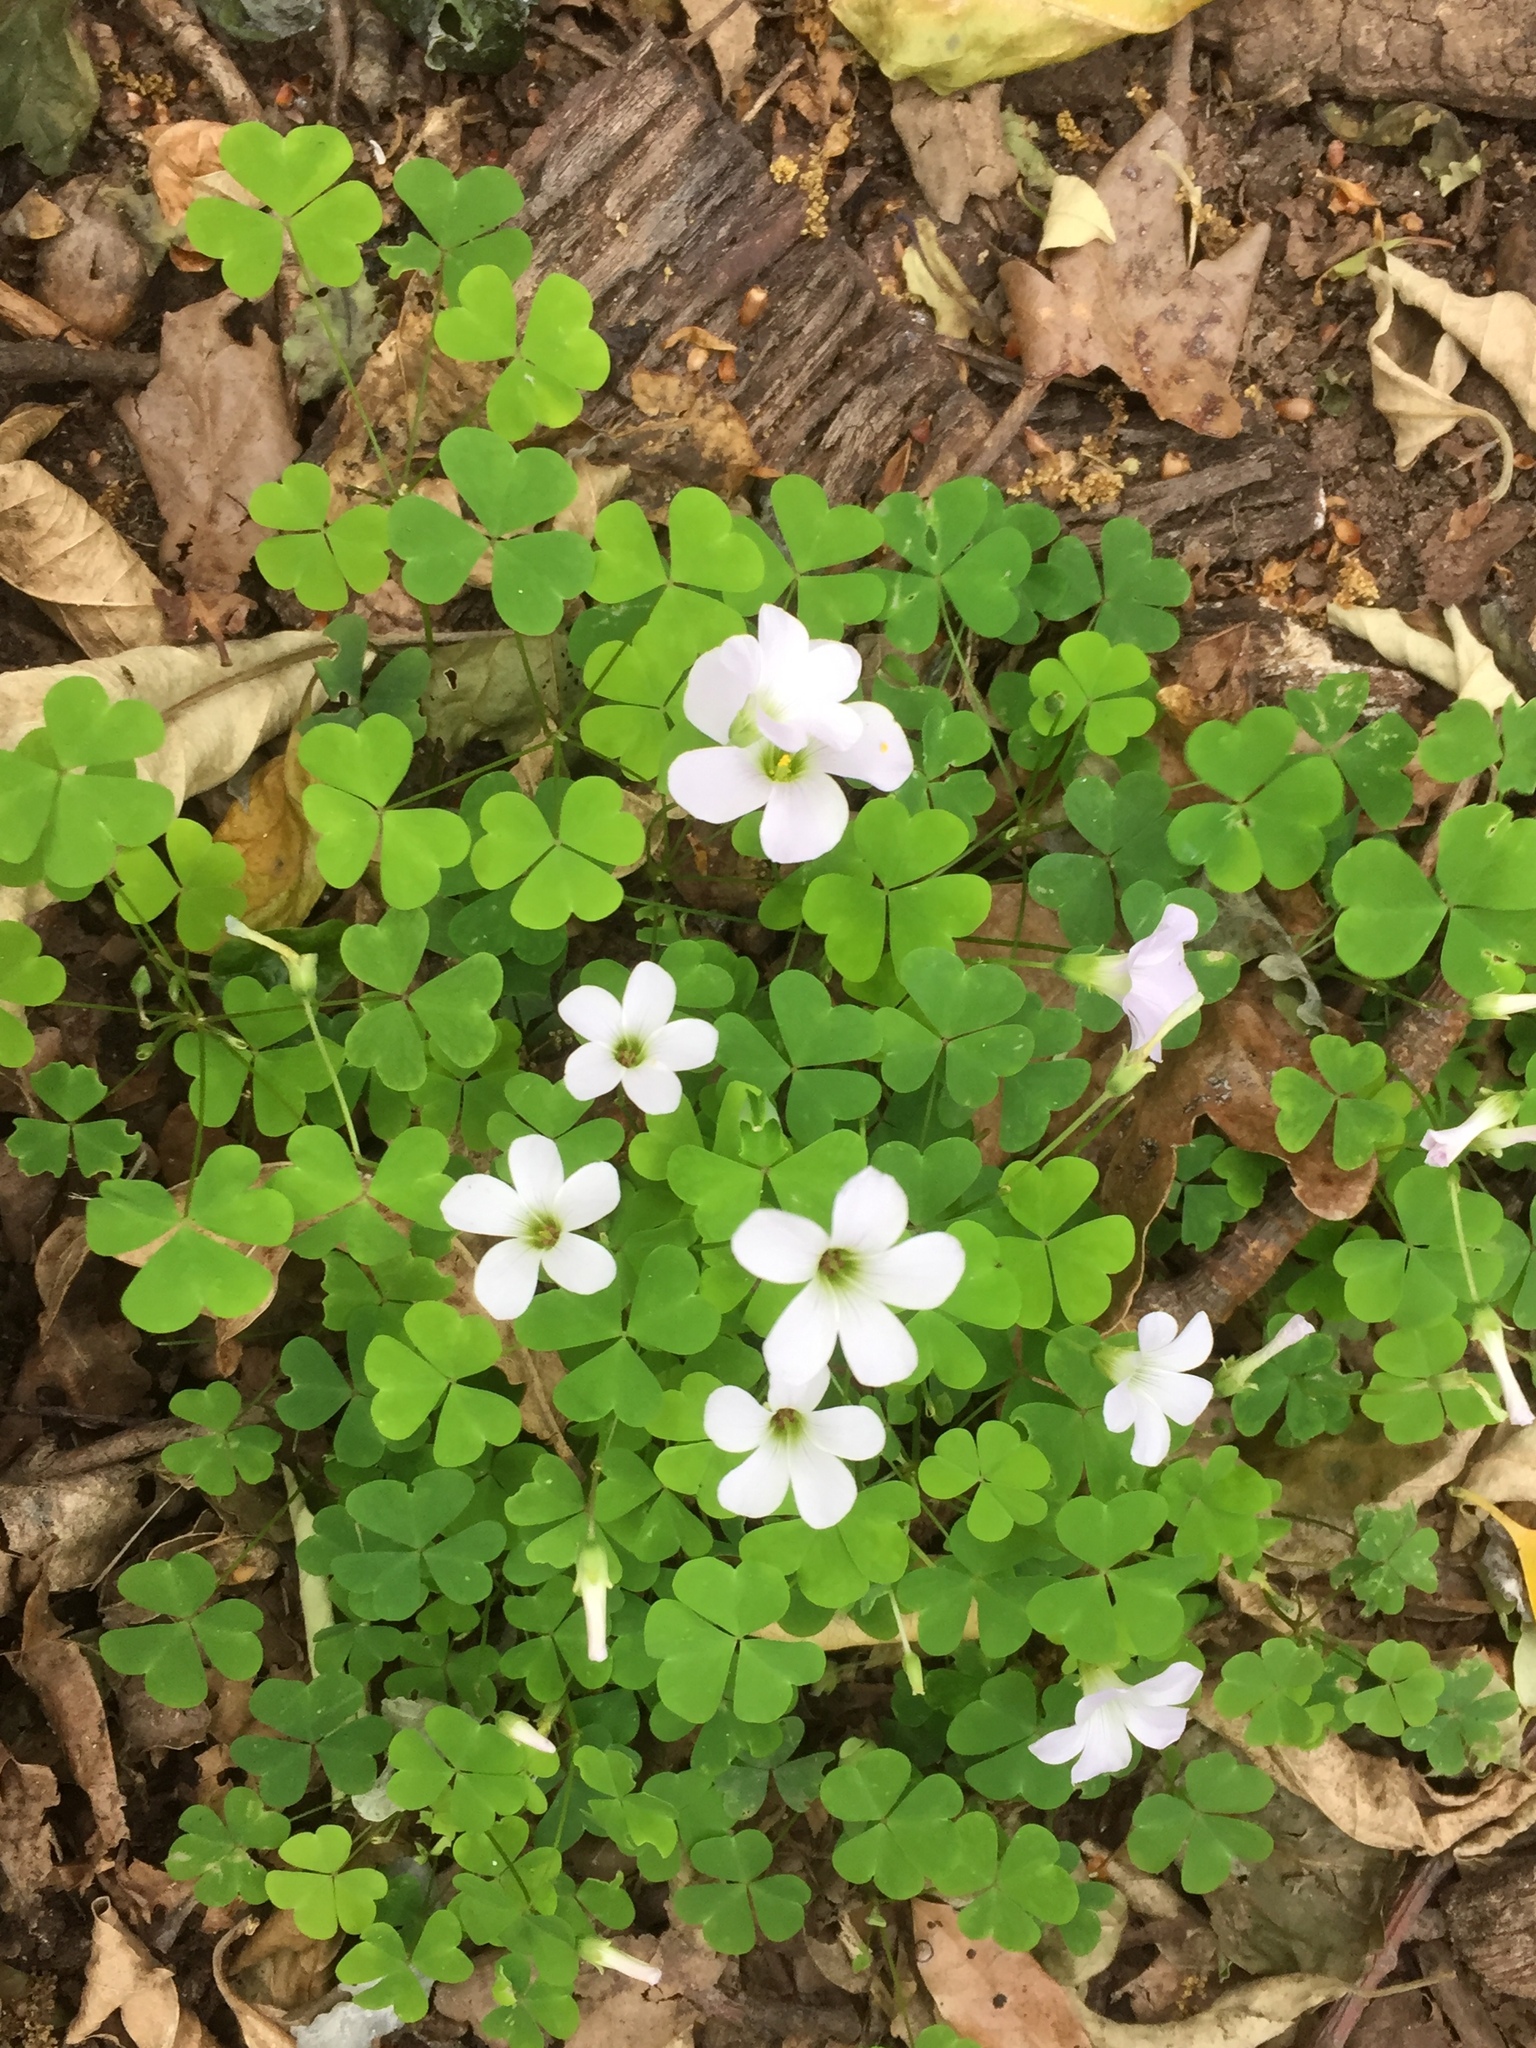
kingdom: Plantae
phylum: Tracheophyta
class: Magnoliopsida
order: Oxalidales
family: Oxalidaceae
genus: Oxalis
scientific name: Oxalis incarnata
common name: Pale pink-sorrel
